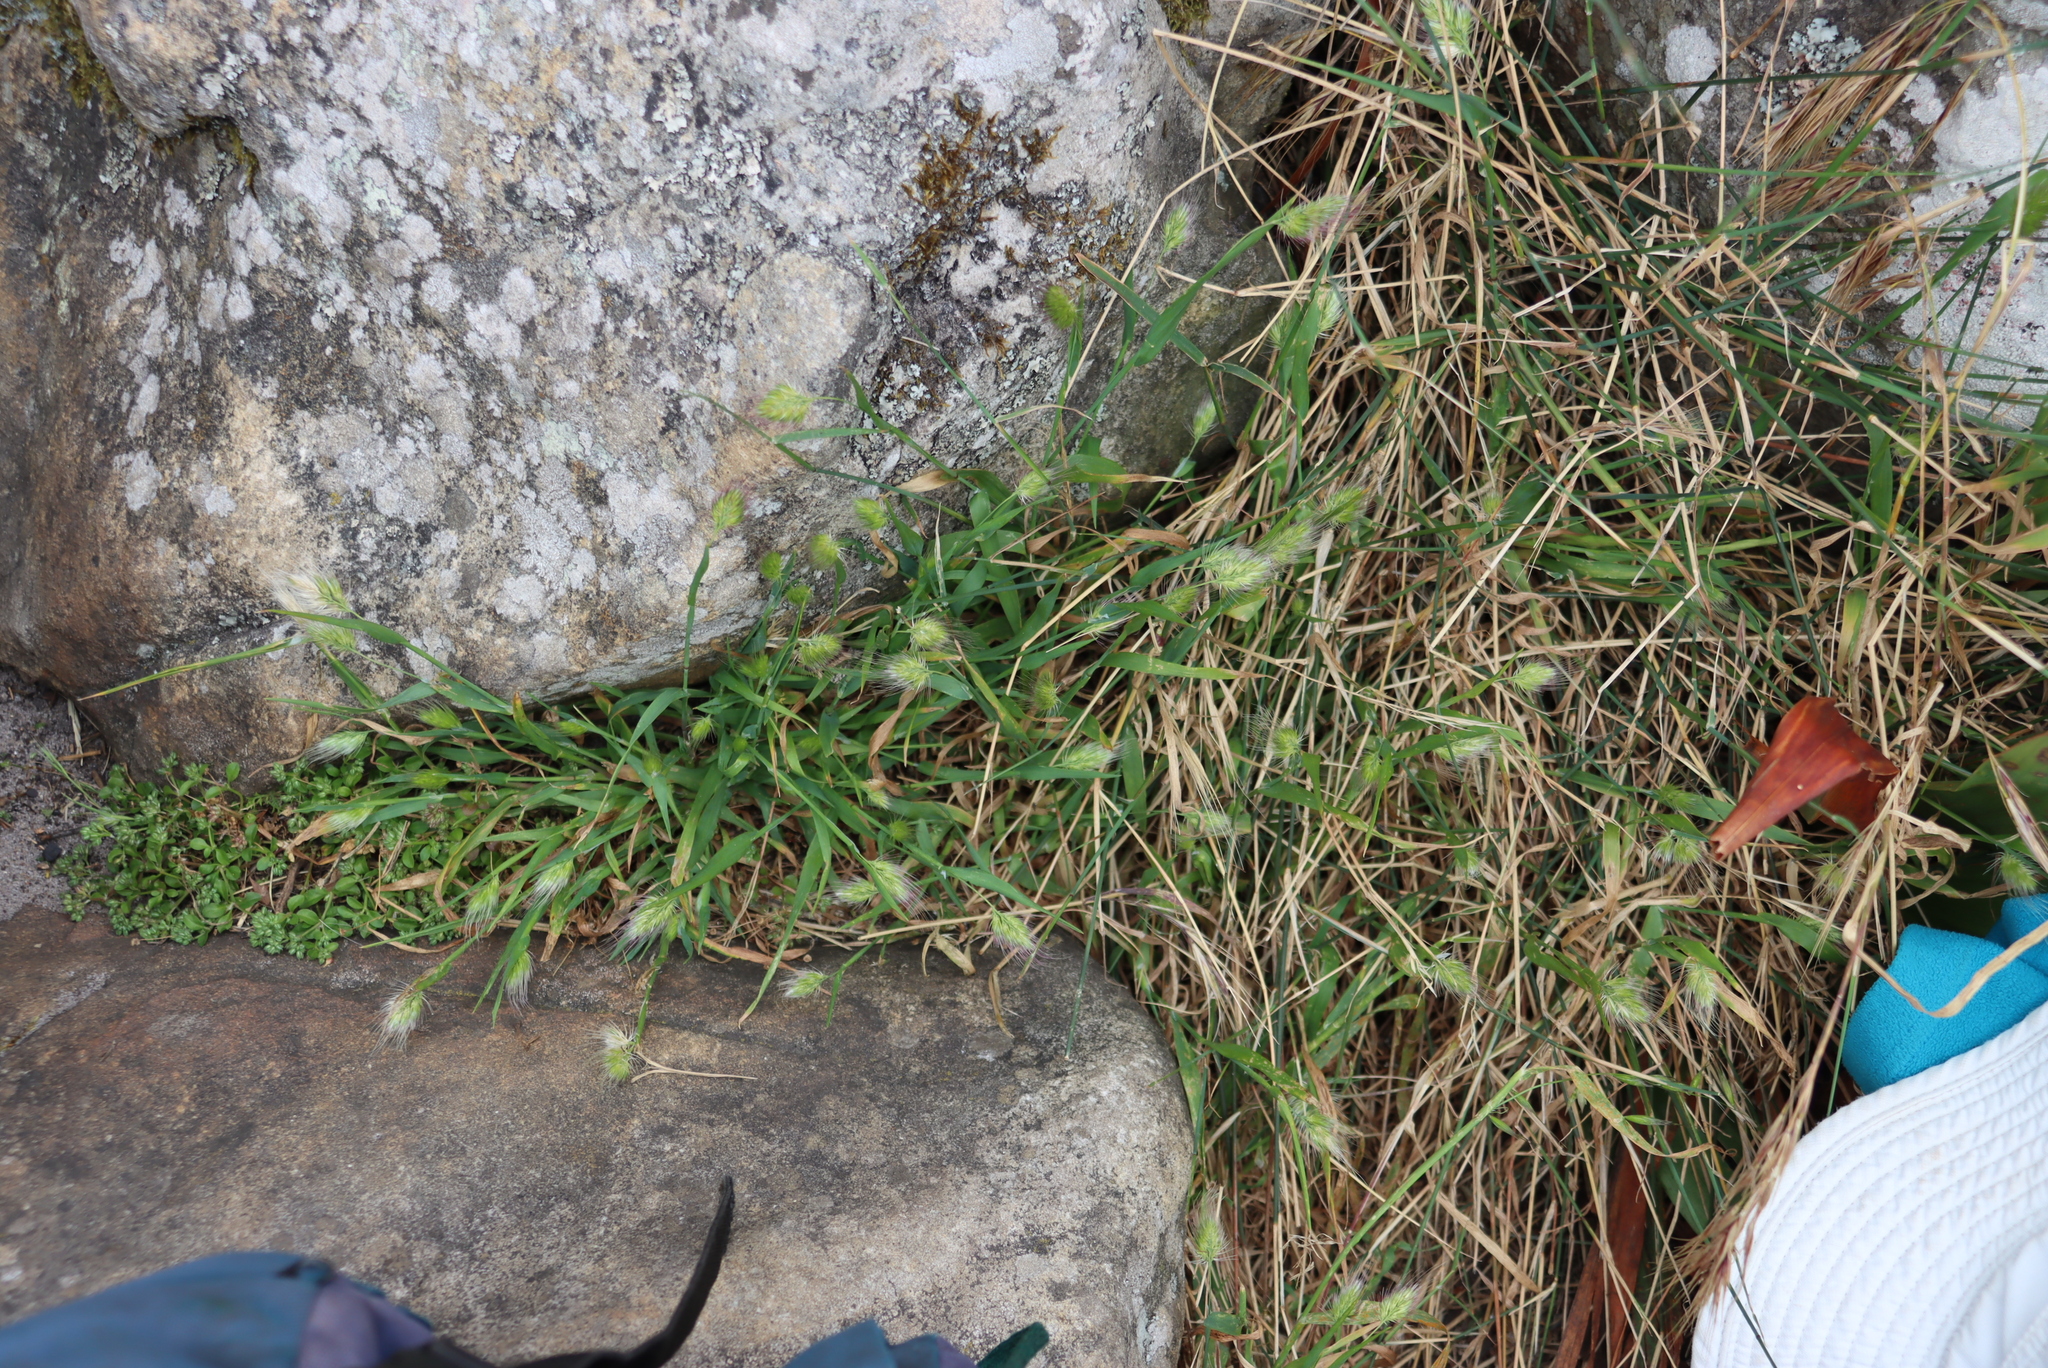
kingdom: Plantae
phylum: Tracheophyta
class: Liliopsida
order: Poales
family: Poaceae
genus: Cynosurus
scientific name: Cynosurus echinatus
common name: Rough dog's-tail
